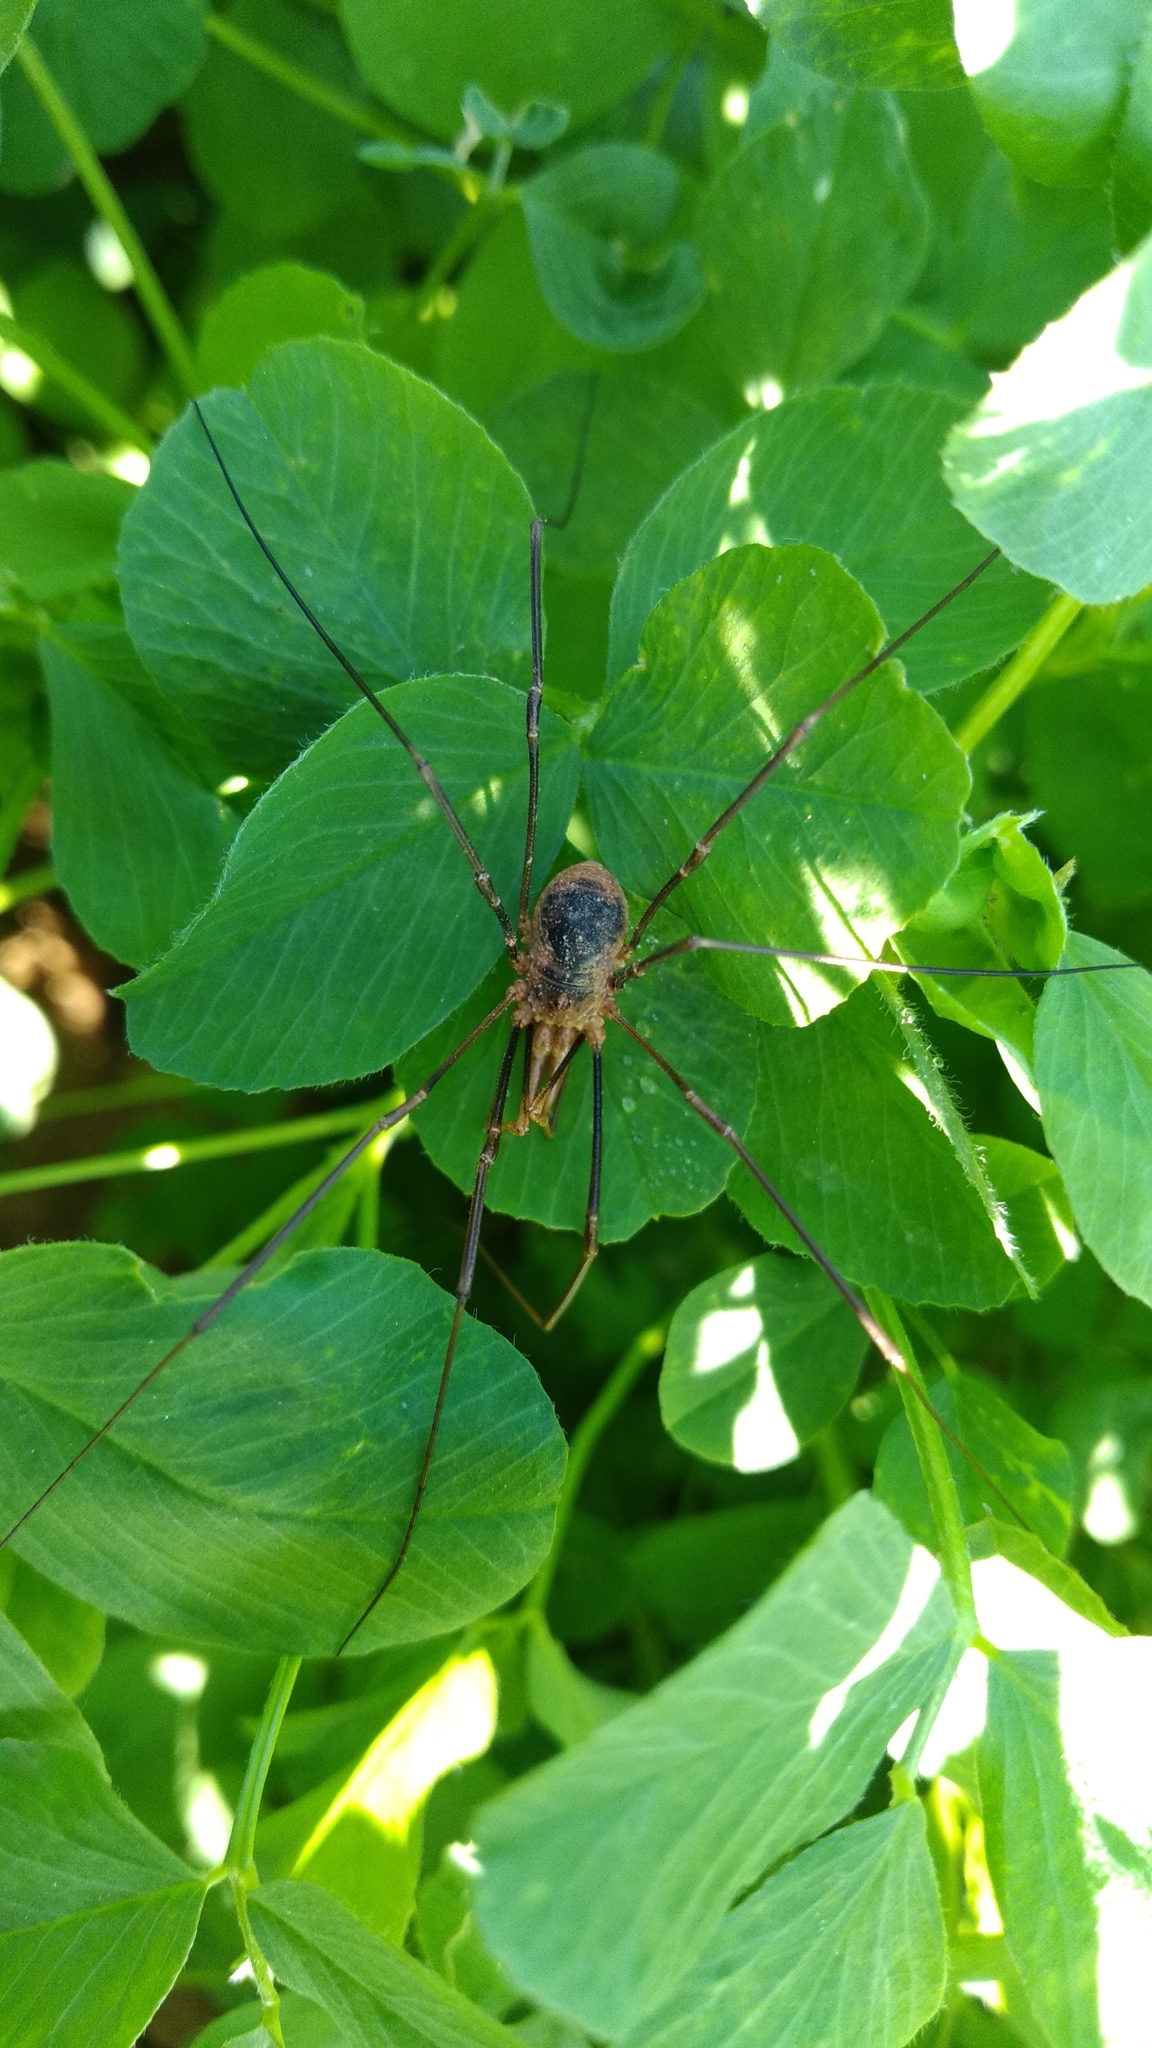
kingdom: Animalia
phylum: Arthropoda
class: Arachnida
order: Opiliones
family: Phalangiidae
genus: Phalangium
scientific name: Phalangium opilio
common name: Daddy longleg
